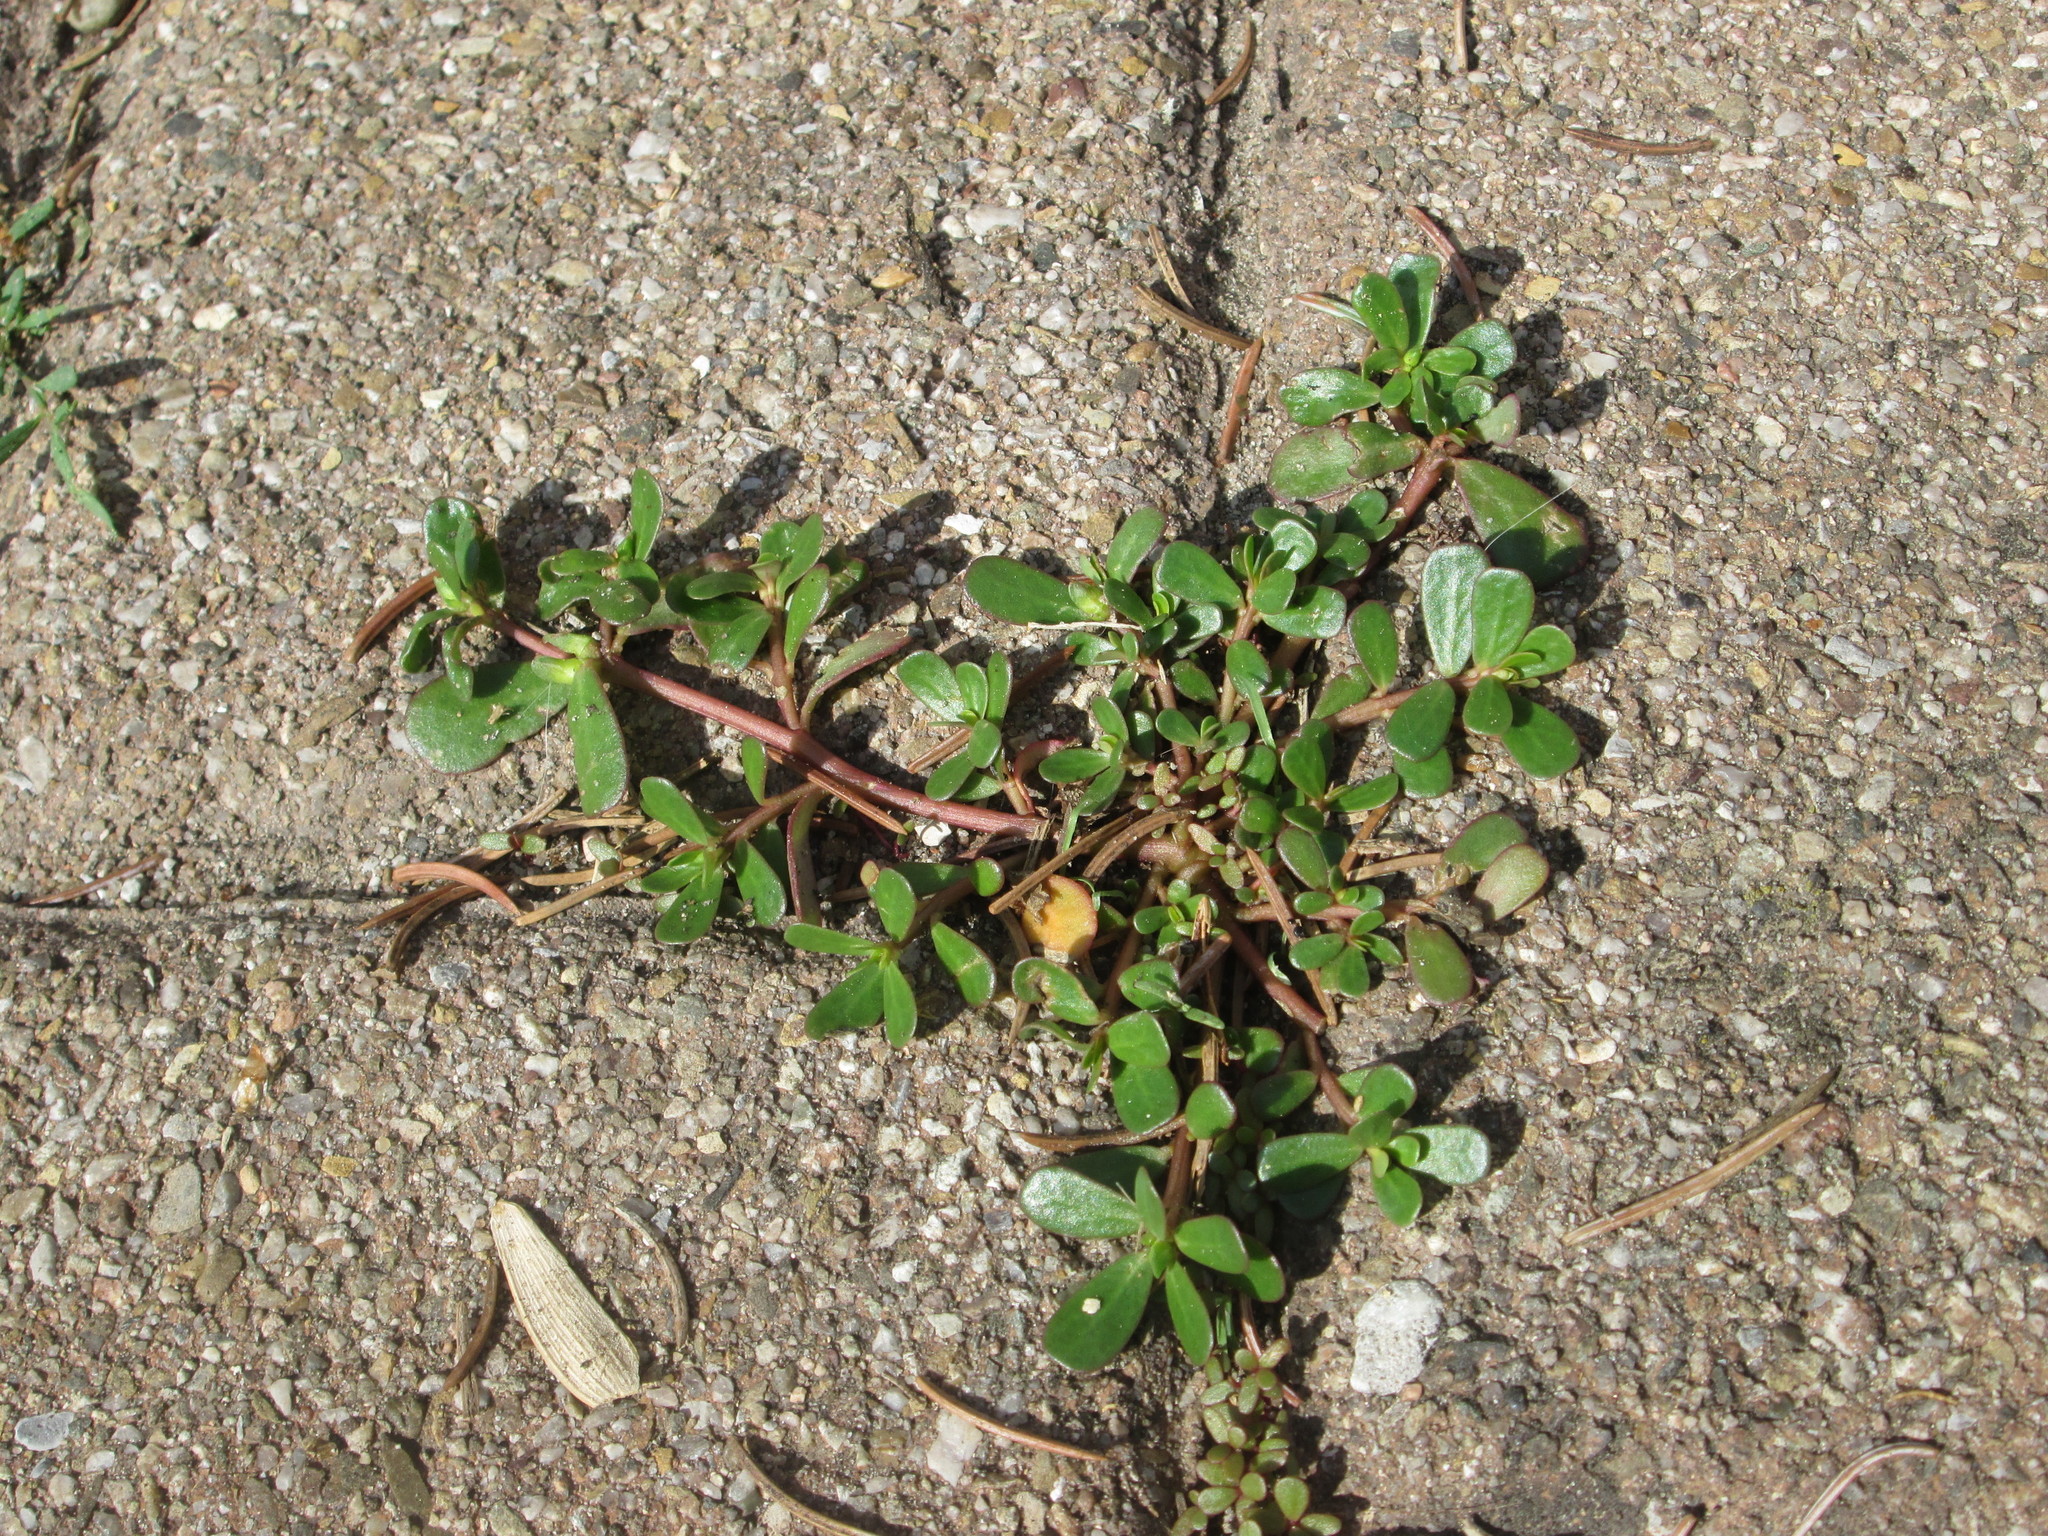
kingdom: Plantae
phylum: Tracheophyta
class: Magnoliopsida
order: Caryophyllales
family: Portulacaceae
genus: Portulaca
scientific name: Portulaca oleracea
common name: Common purslane
